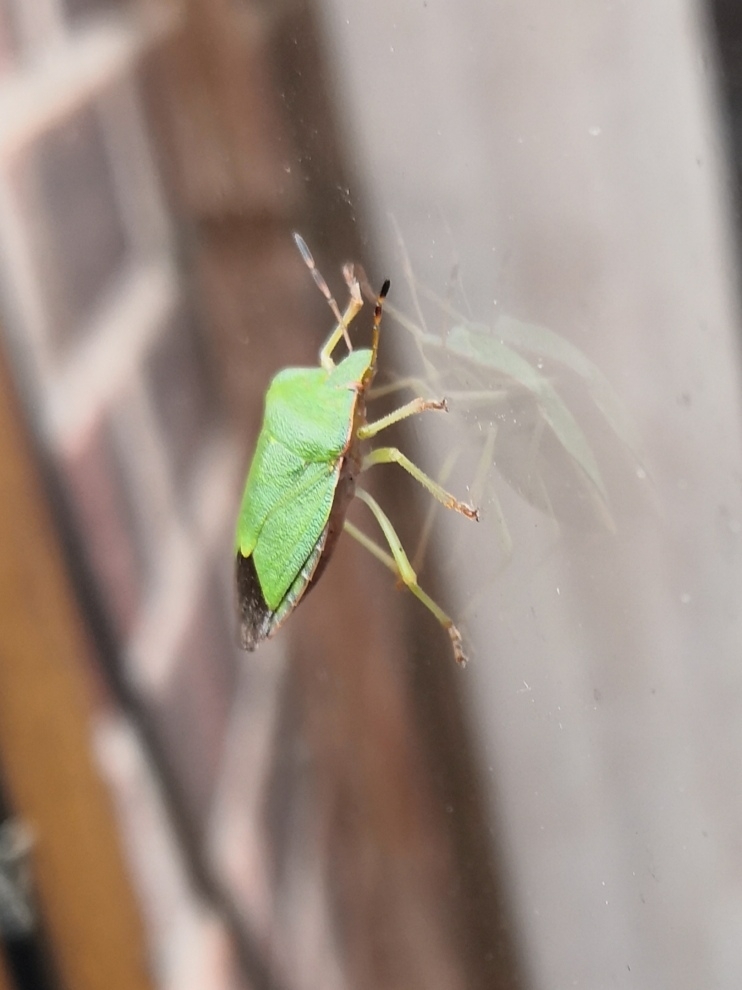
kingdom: Animalia
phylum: Arthropoda
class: Insecta
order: Hemiptera
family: Pentatomidae
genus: Palomena
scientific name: Palomena prasina
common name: Green shieldbug
